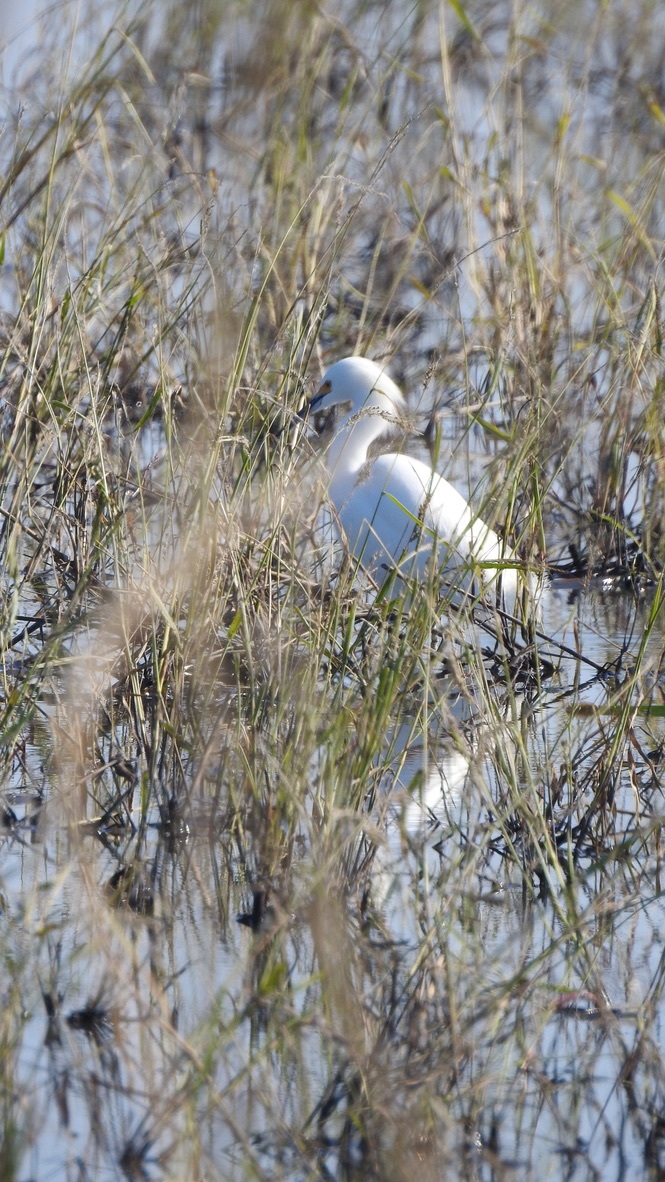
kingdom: Animalia
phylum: Chordata
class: Aves
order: Pelecaniformes
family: Ardeidae
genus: Egretta
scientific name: Egretta thula
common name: Snowy egret
